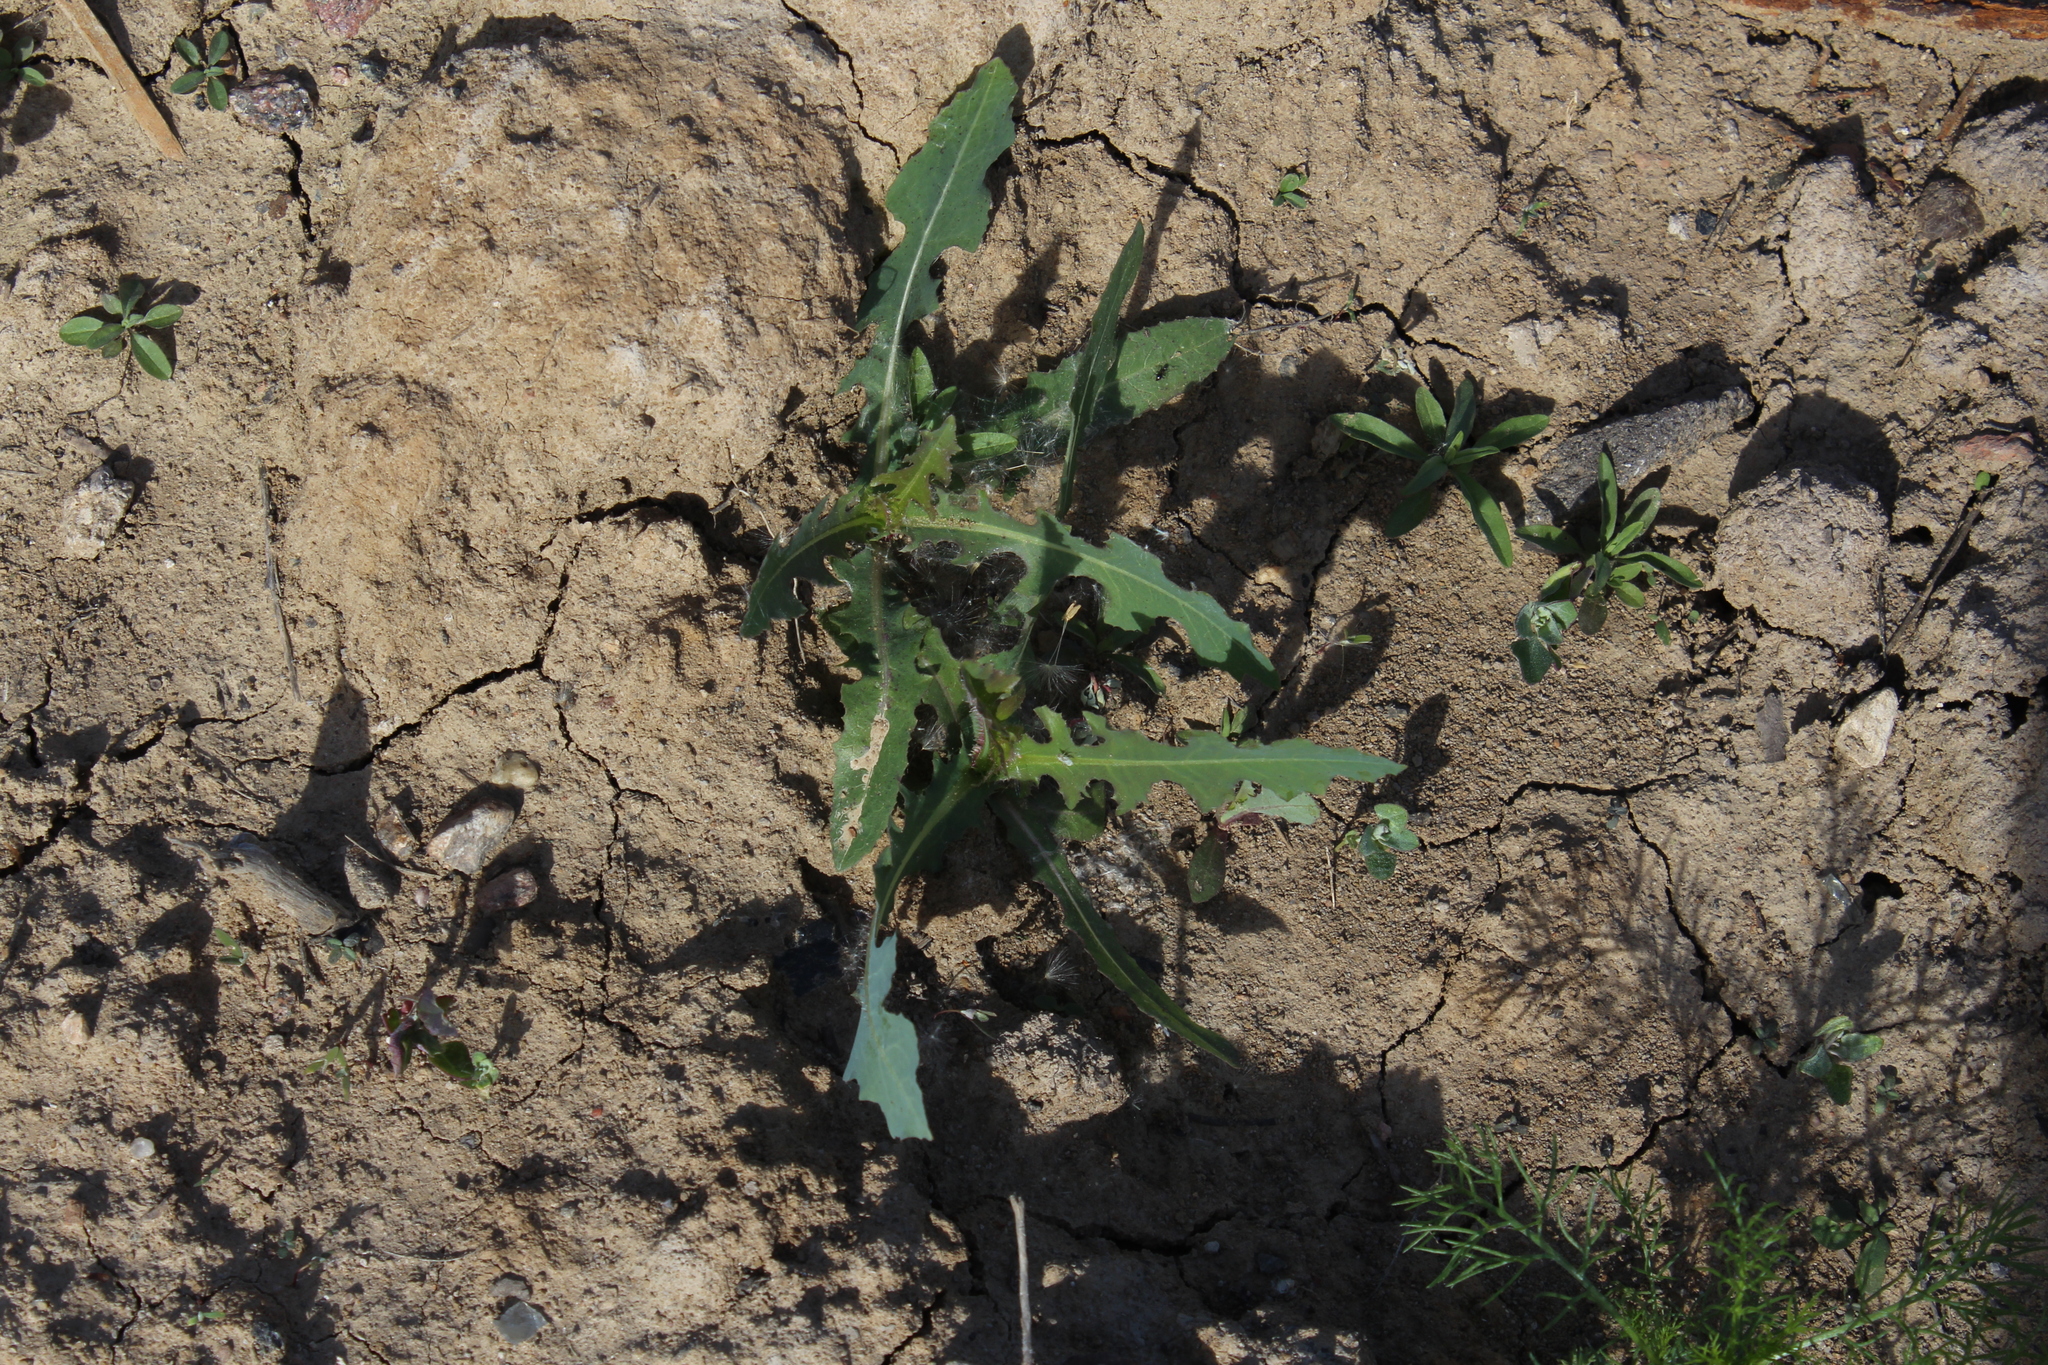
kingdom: Plantae
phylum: Tracheophyta
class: Magnoliopsida
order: Asterales
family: Asteraceae
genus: Lactuca
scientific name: Lactuca serriola
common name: Prickly lettuce
